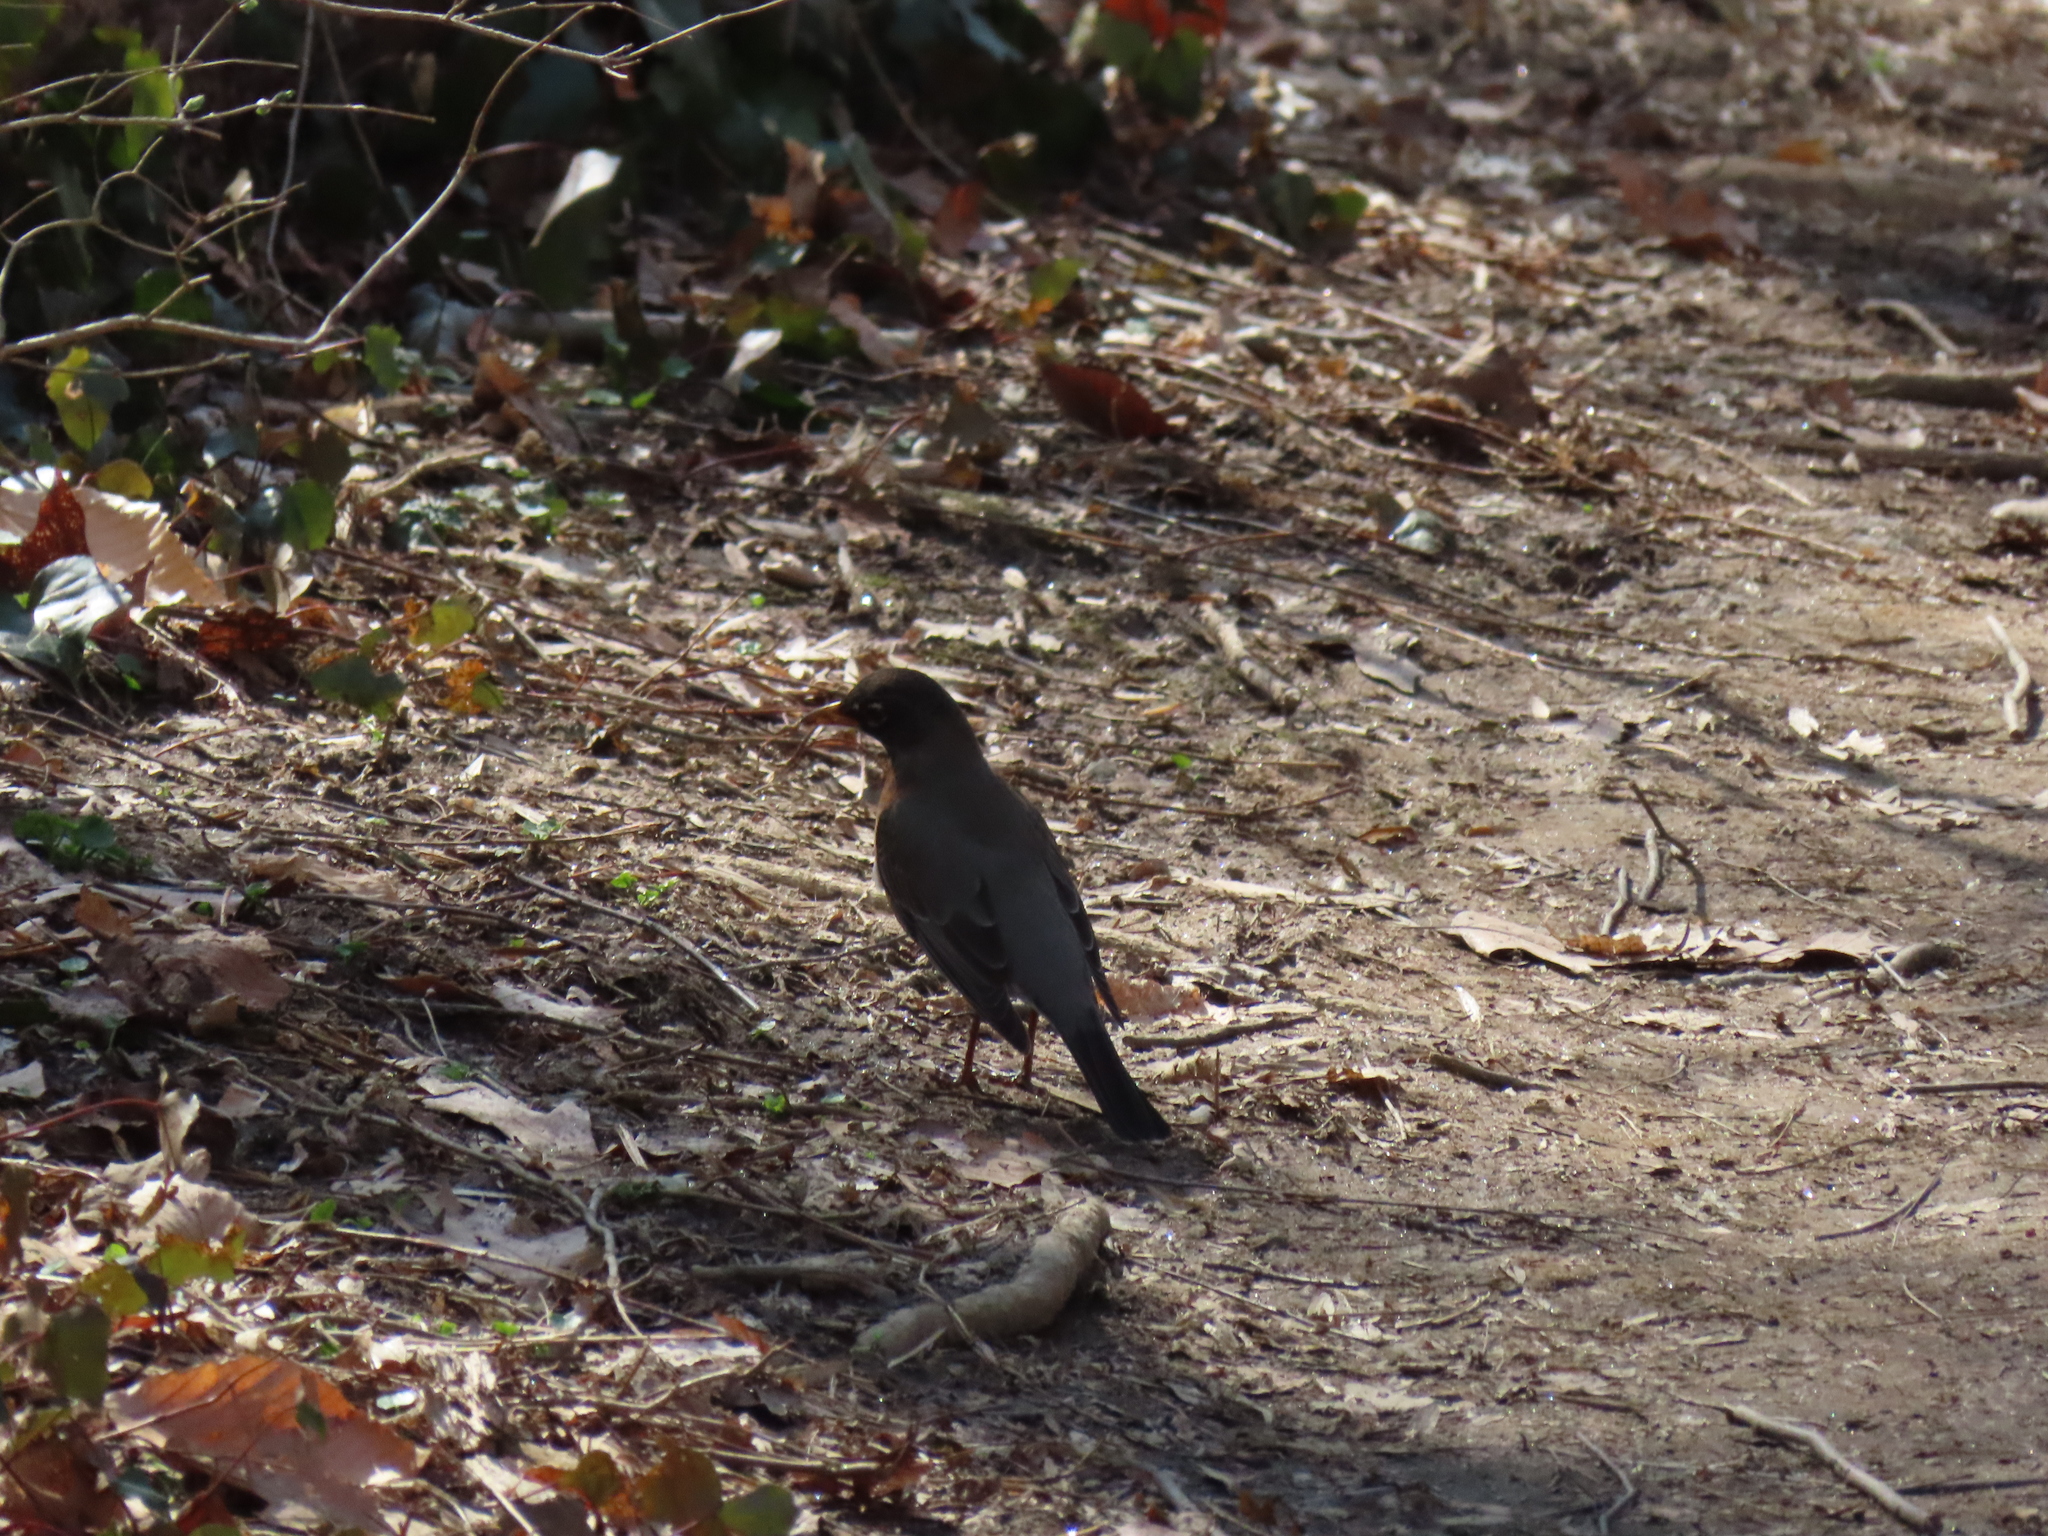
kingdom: Animalia
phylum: Chordata
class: Aves
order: Passeriformes
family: Turdidae
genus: Turdus
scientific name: Turdus migratorius
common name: American robin
